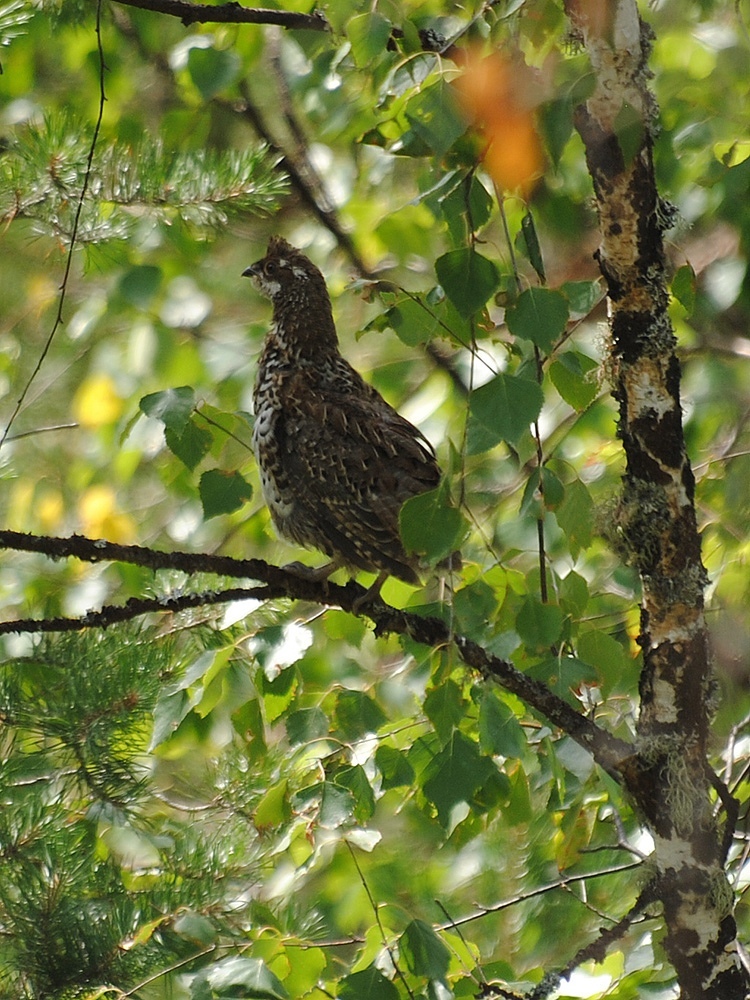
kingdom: Animalia
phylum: Chordata
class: Aves
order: Galliformes
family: Phasianidae
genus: Tetrastes
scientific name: Tetrastes bonasia
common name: Hazel grouse
